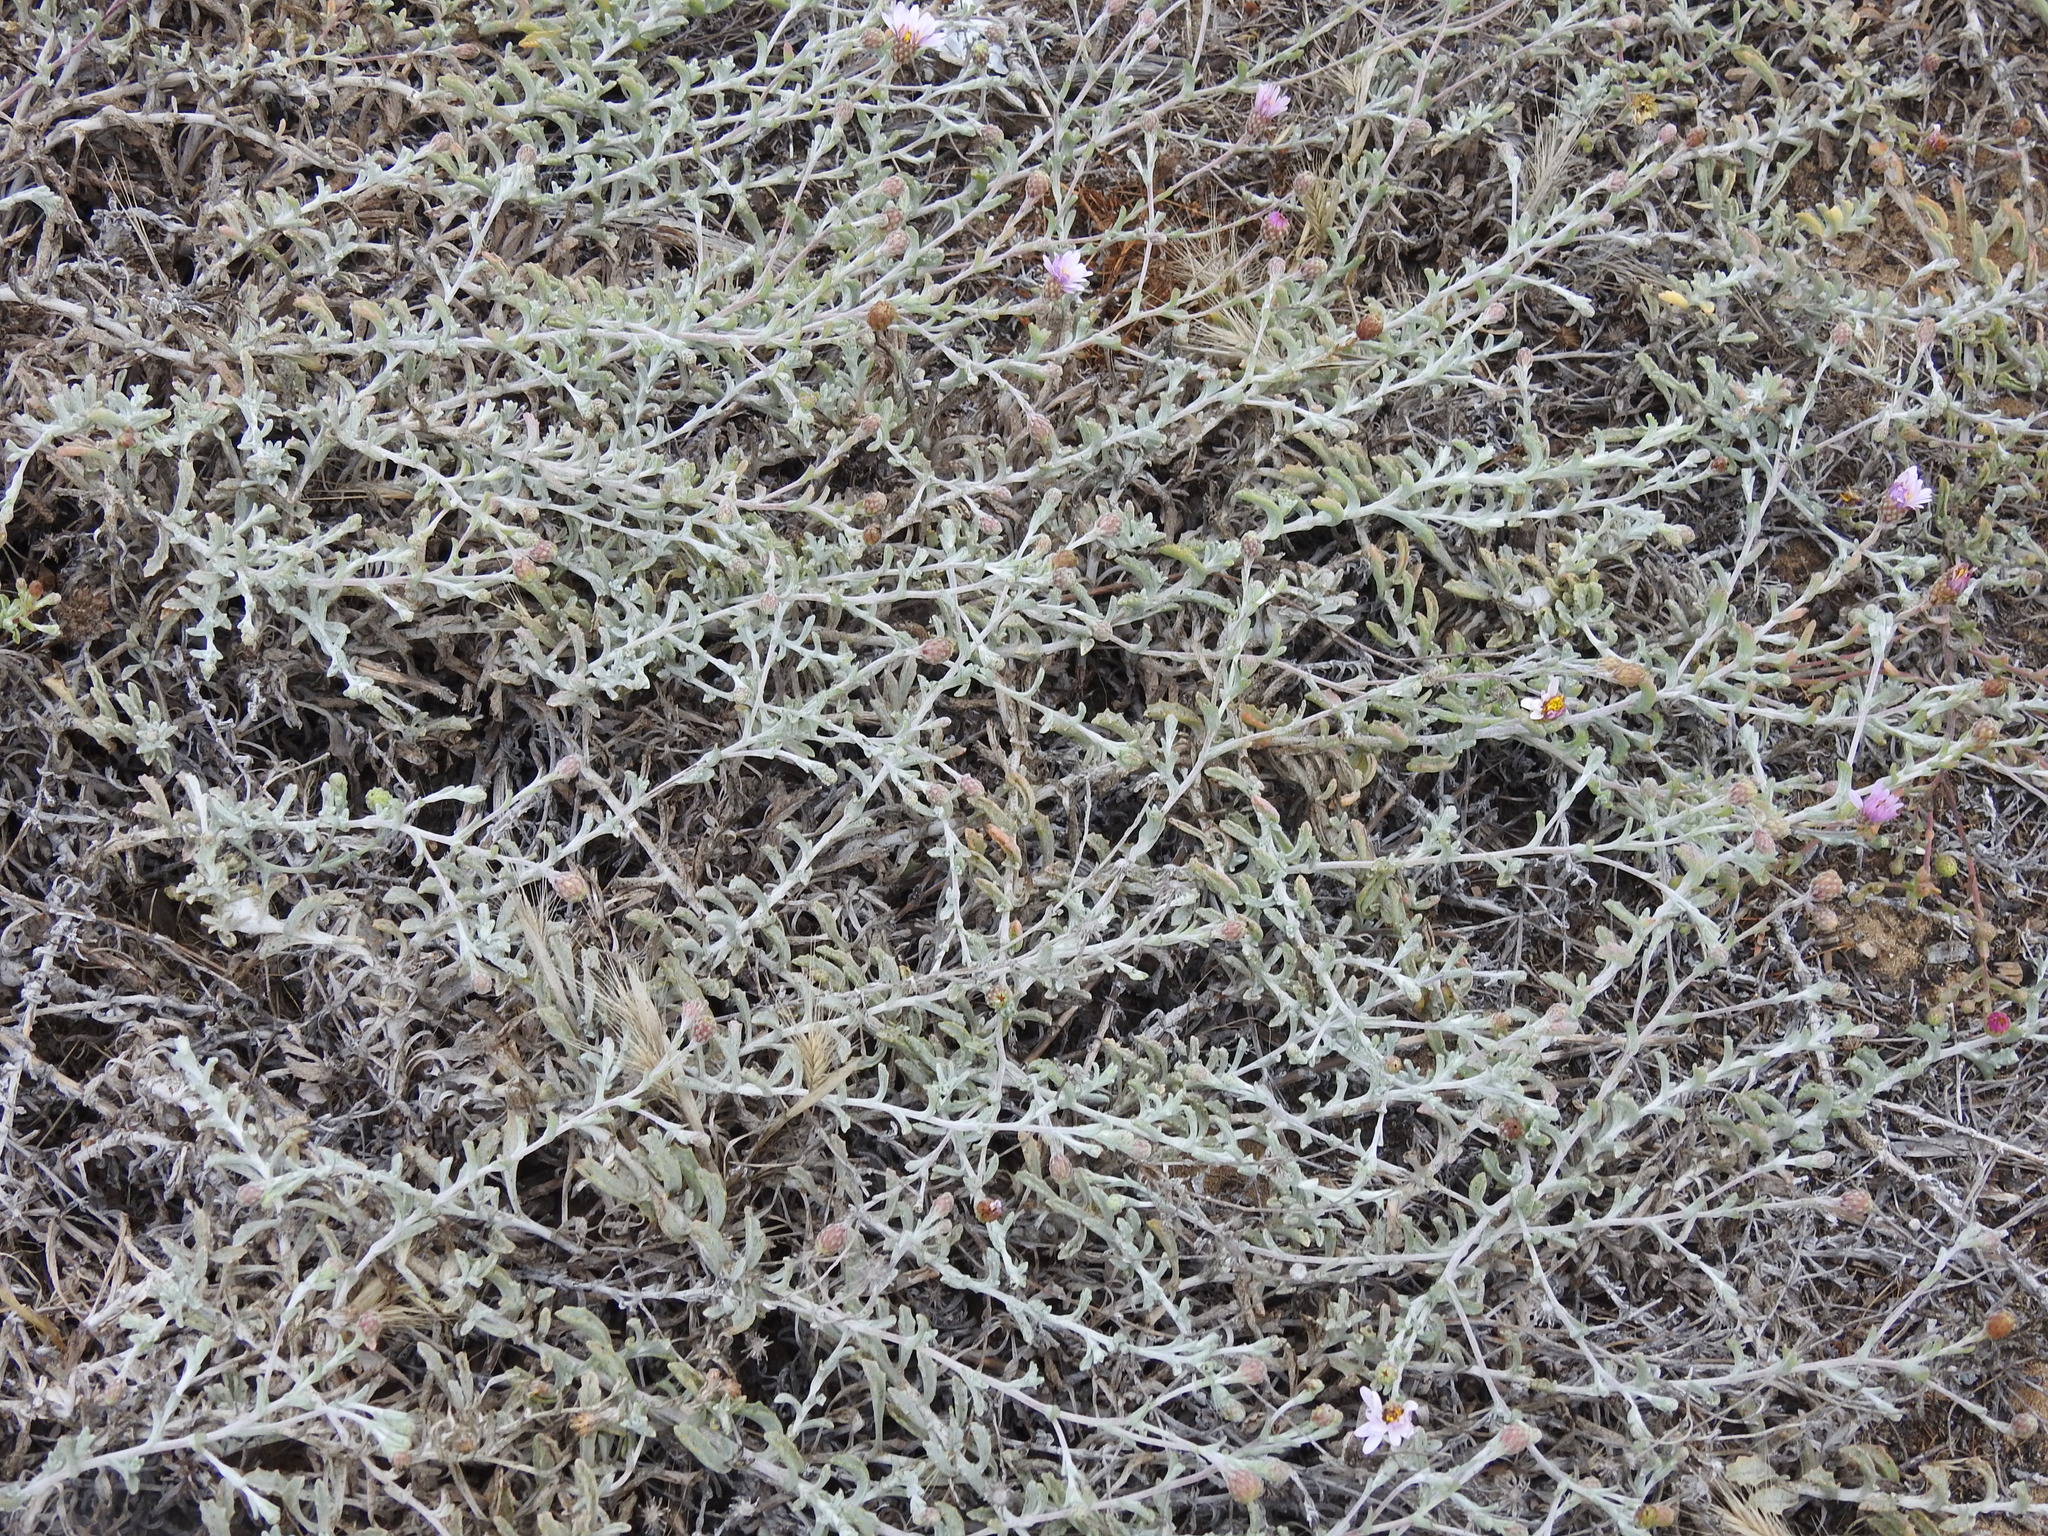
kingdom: Plantae
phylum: Tracheophyta
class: Magnoliopsida
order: Asterales
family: Asteraceae
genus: Corethrogyne
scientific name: Corethrogyne filaginifolia
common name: Sand-aster
